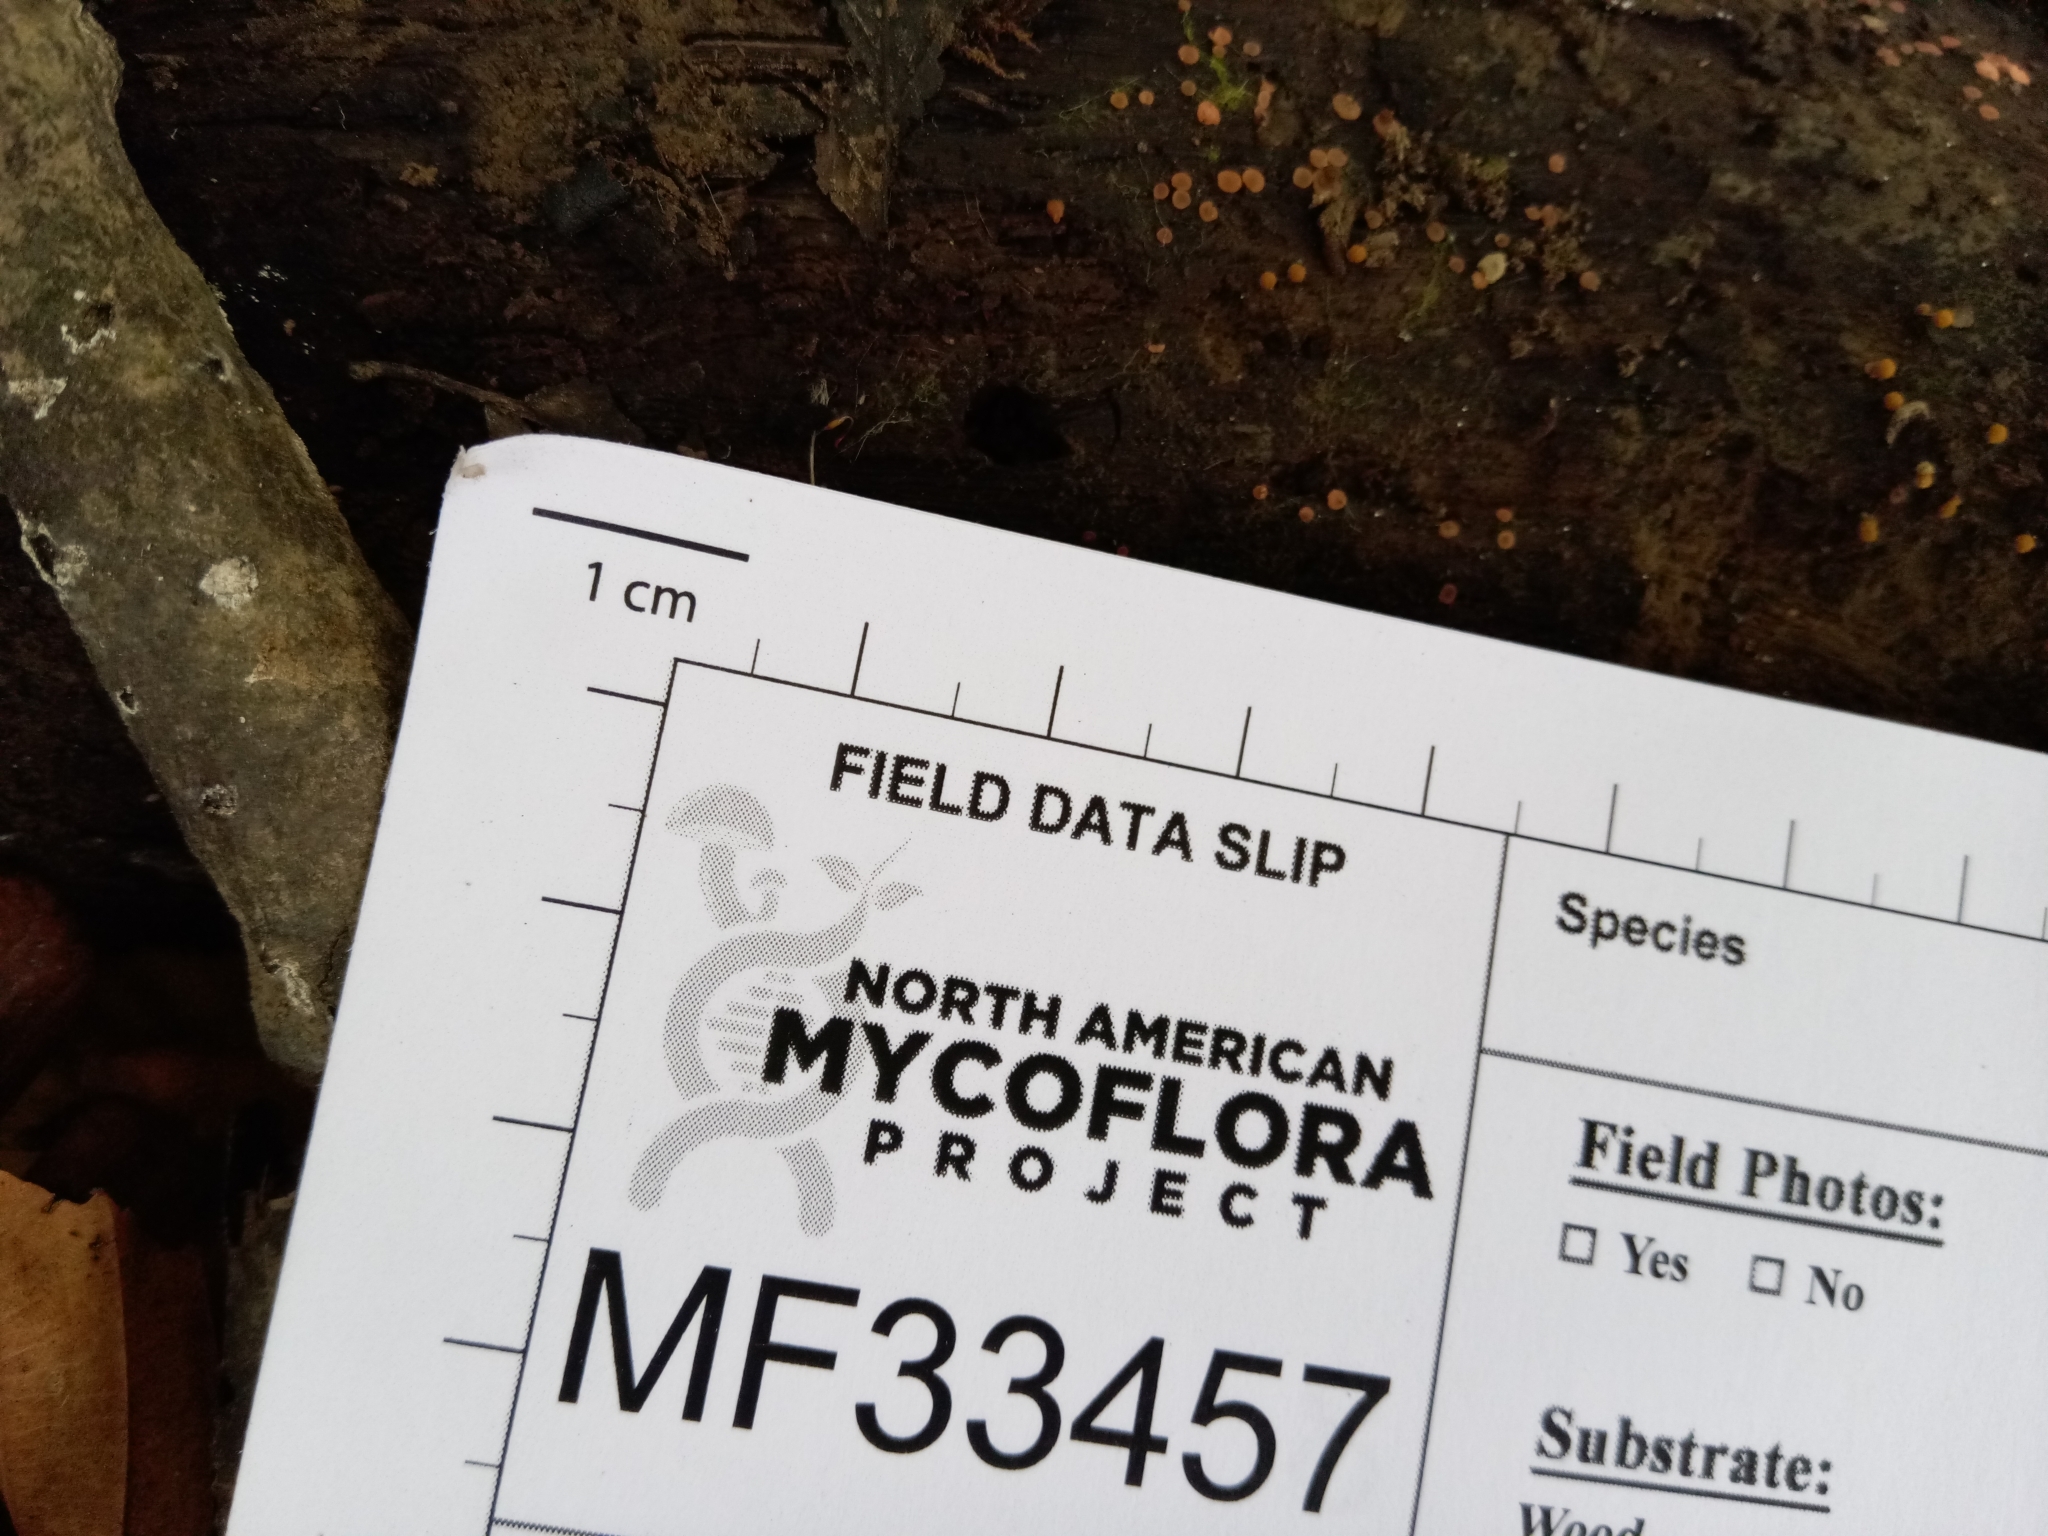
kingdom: Fungi
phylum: Ascomycota
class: Orbiliomycetes
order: Orbiliales
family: Orbiliaceae
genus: Orbilia
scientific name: Orbilia crenatomarginata
